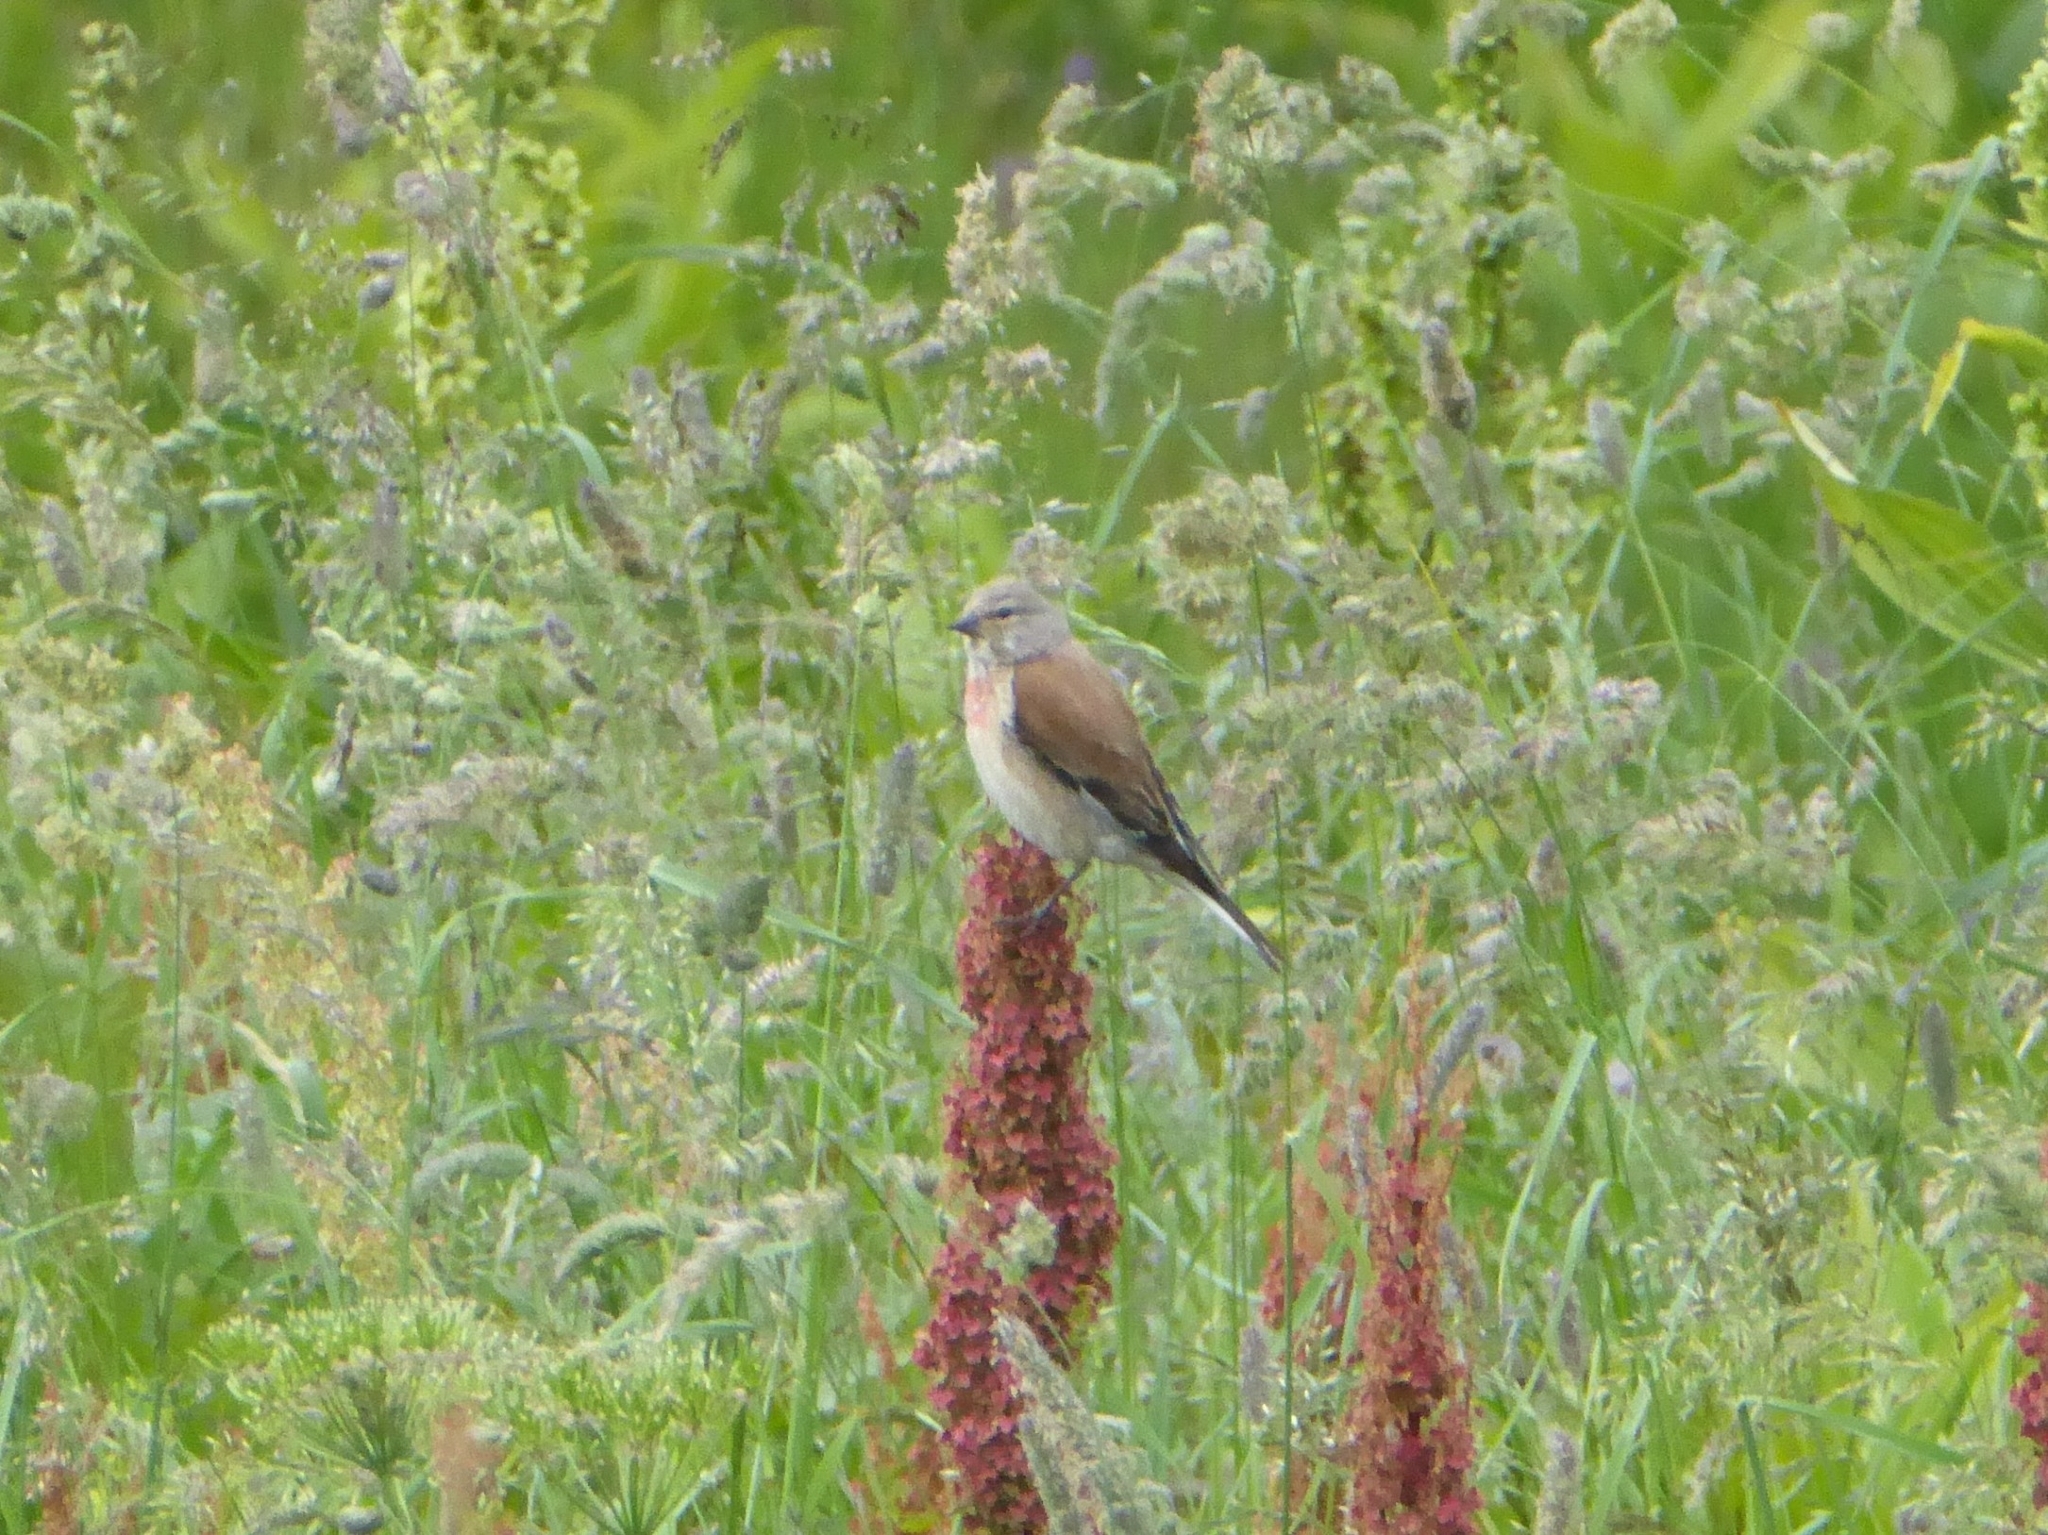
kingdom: Animalia
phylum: Chordata
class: Aves
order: Passeriformes
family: Fringillidae
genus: Linaria
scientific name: Linaria cannabina
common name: Common linnet
